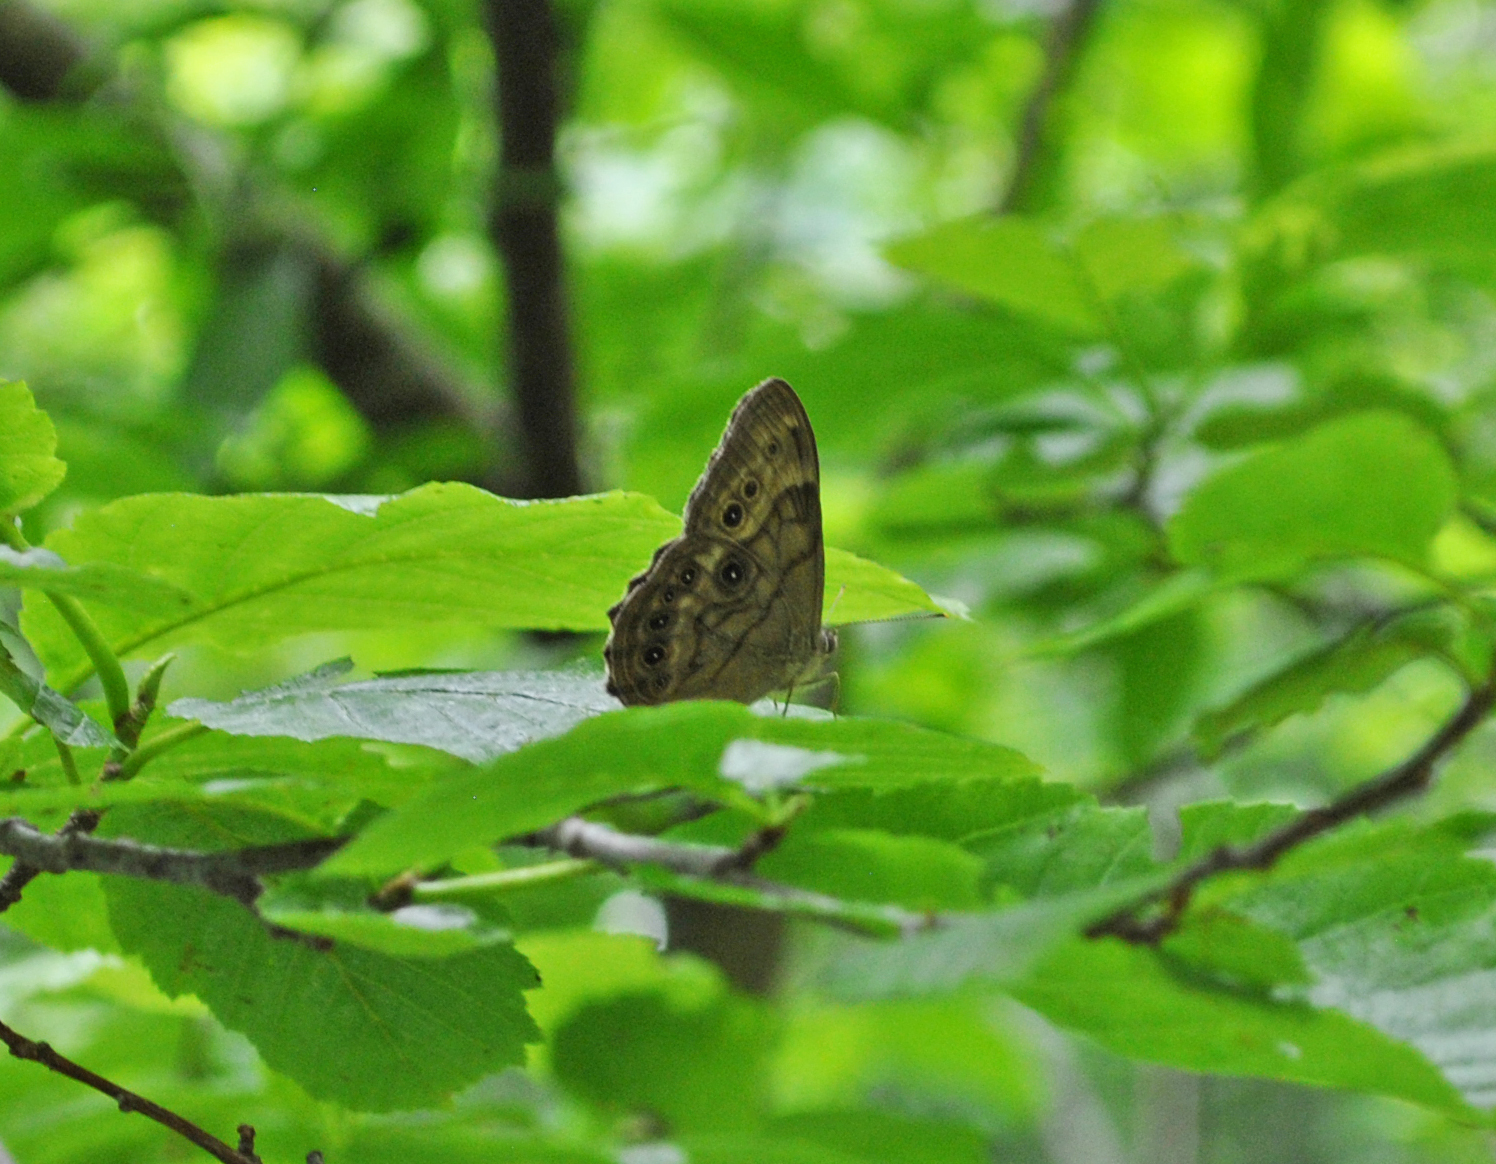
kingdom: Animalia
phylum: Arthropoda
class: Insecta
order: Lepidoptera
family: Nymphalidae
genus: Lethe
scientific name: Lethe anthedon
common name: Northern pearly-eye
